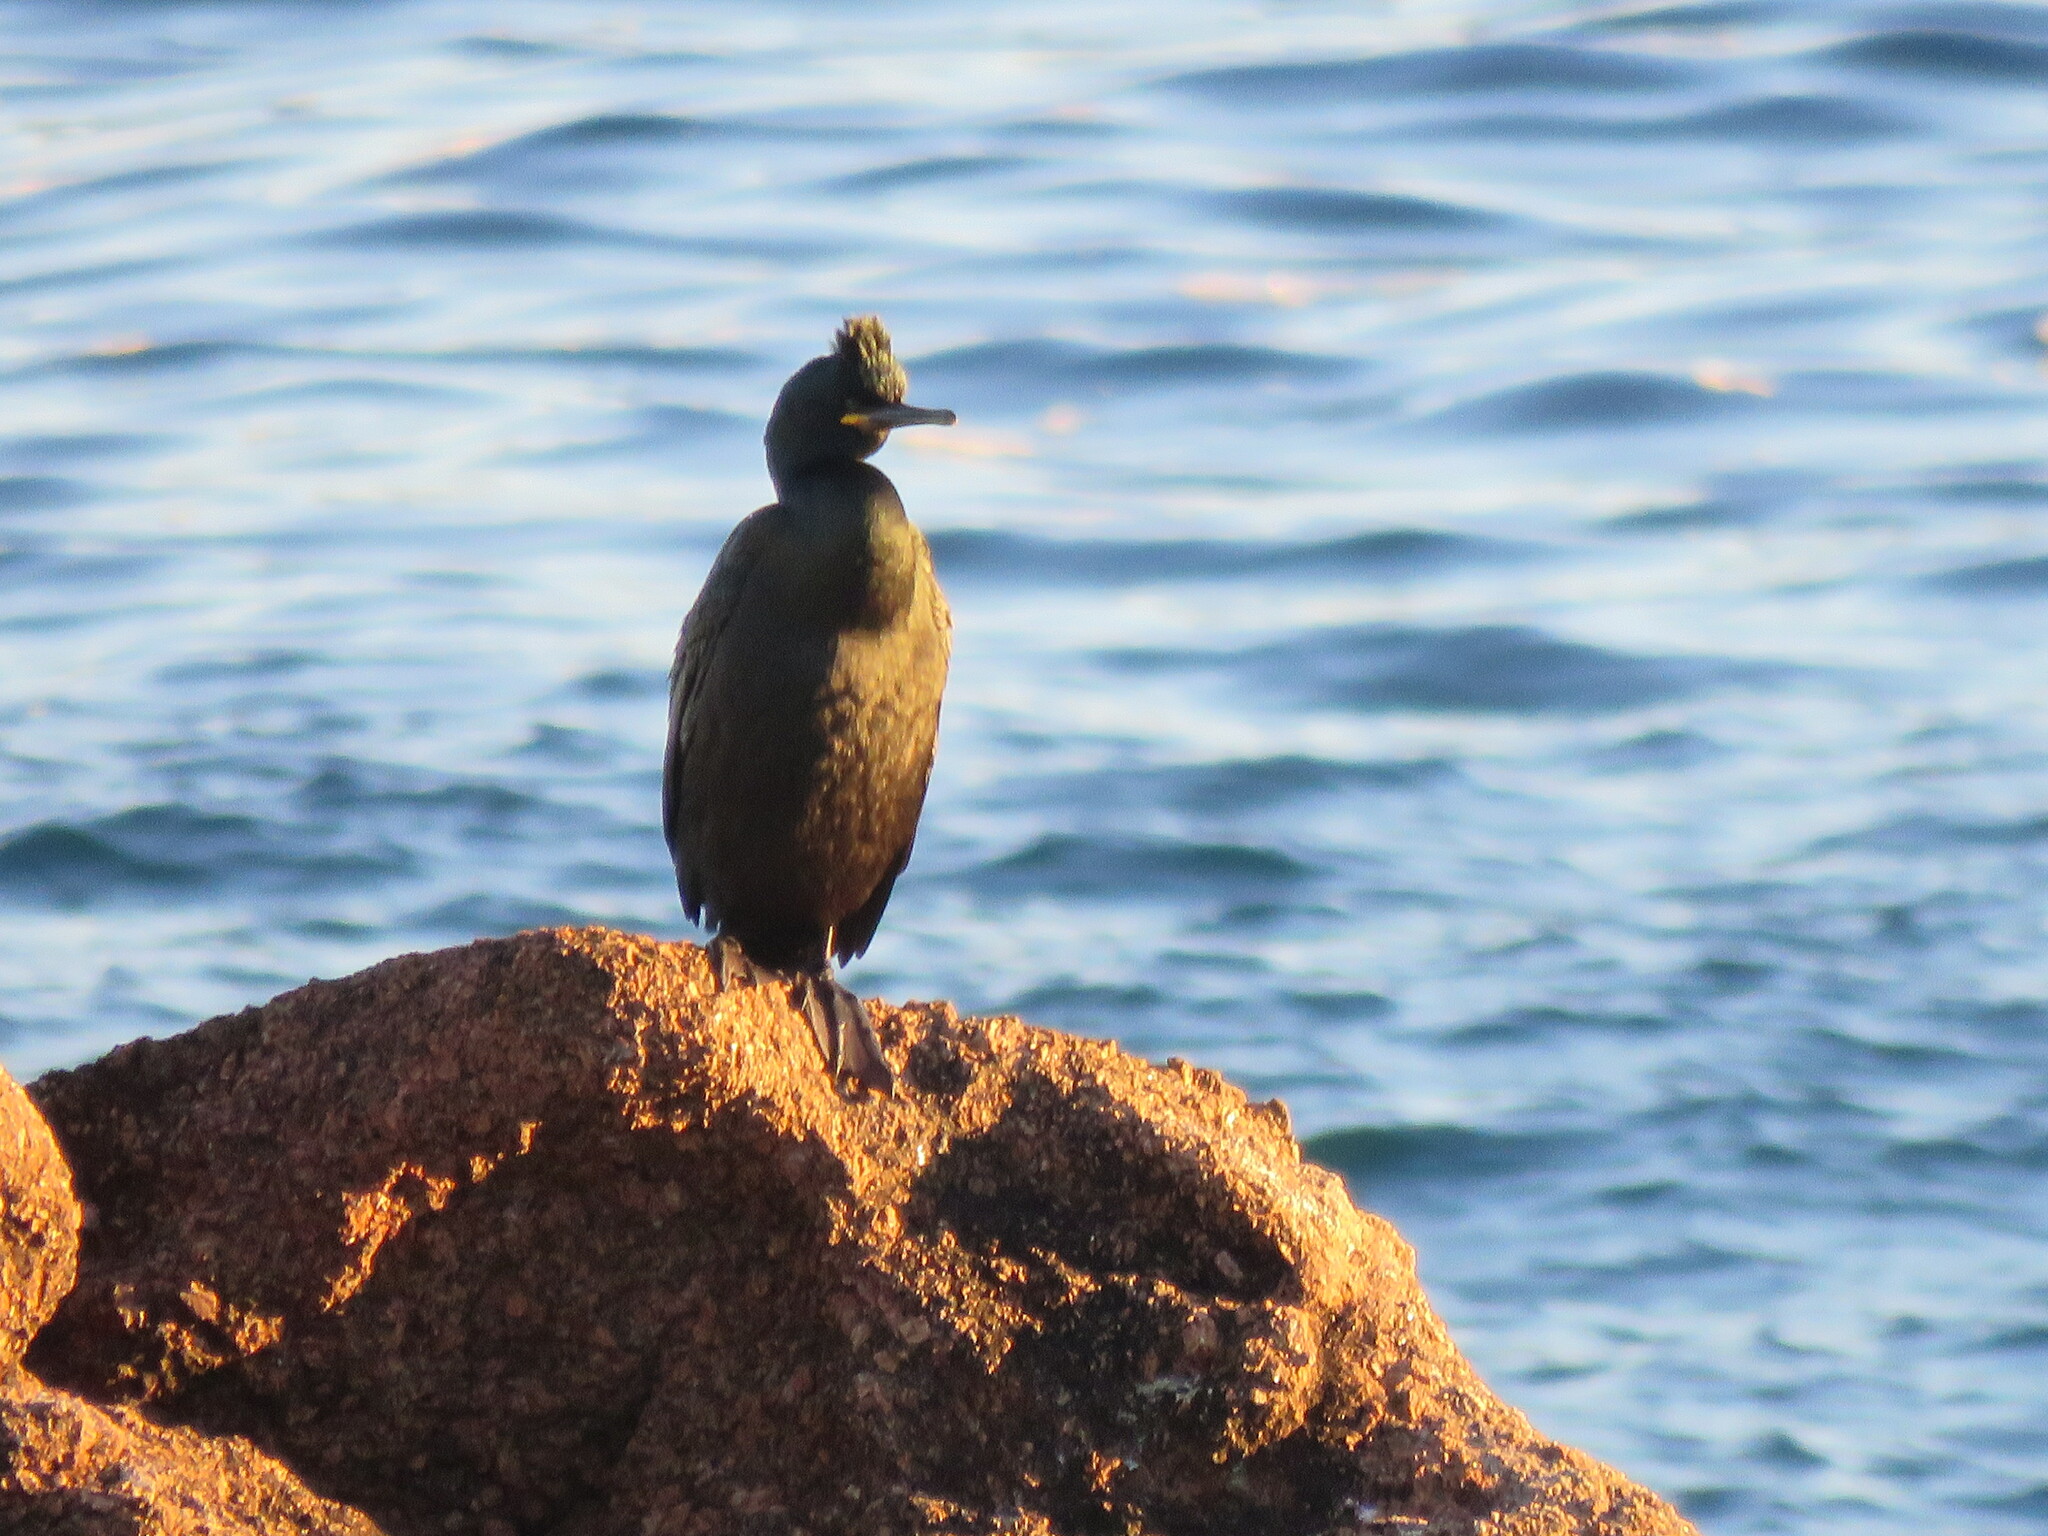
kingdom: Animalia
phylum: Chordata
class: Aves
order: Suliformes
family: Phalacrocoracidae
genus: Phalacrocorax
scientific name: Phalacrocorax aristotelis
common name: European shag
